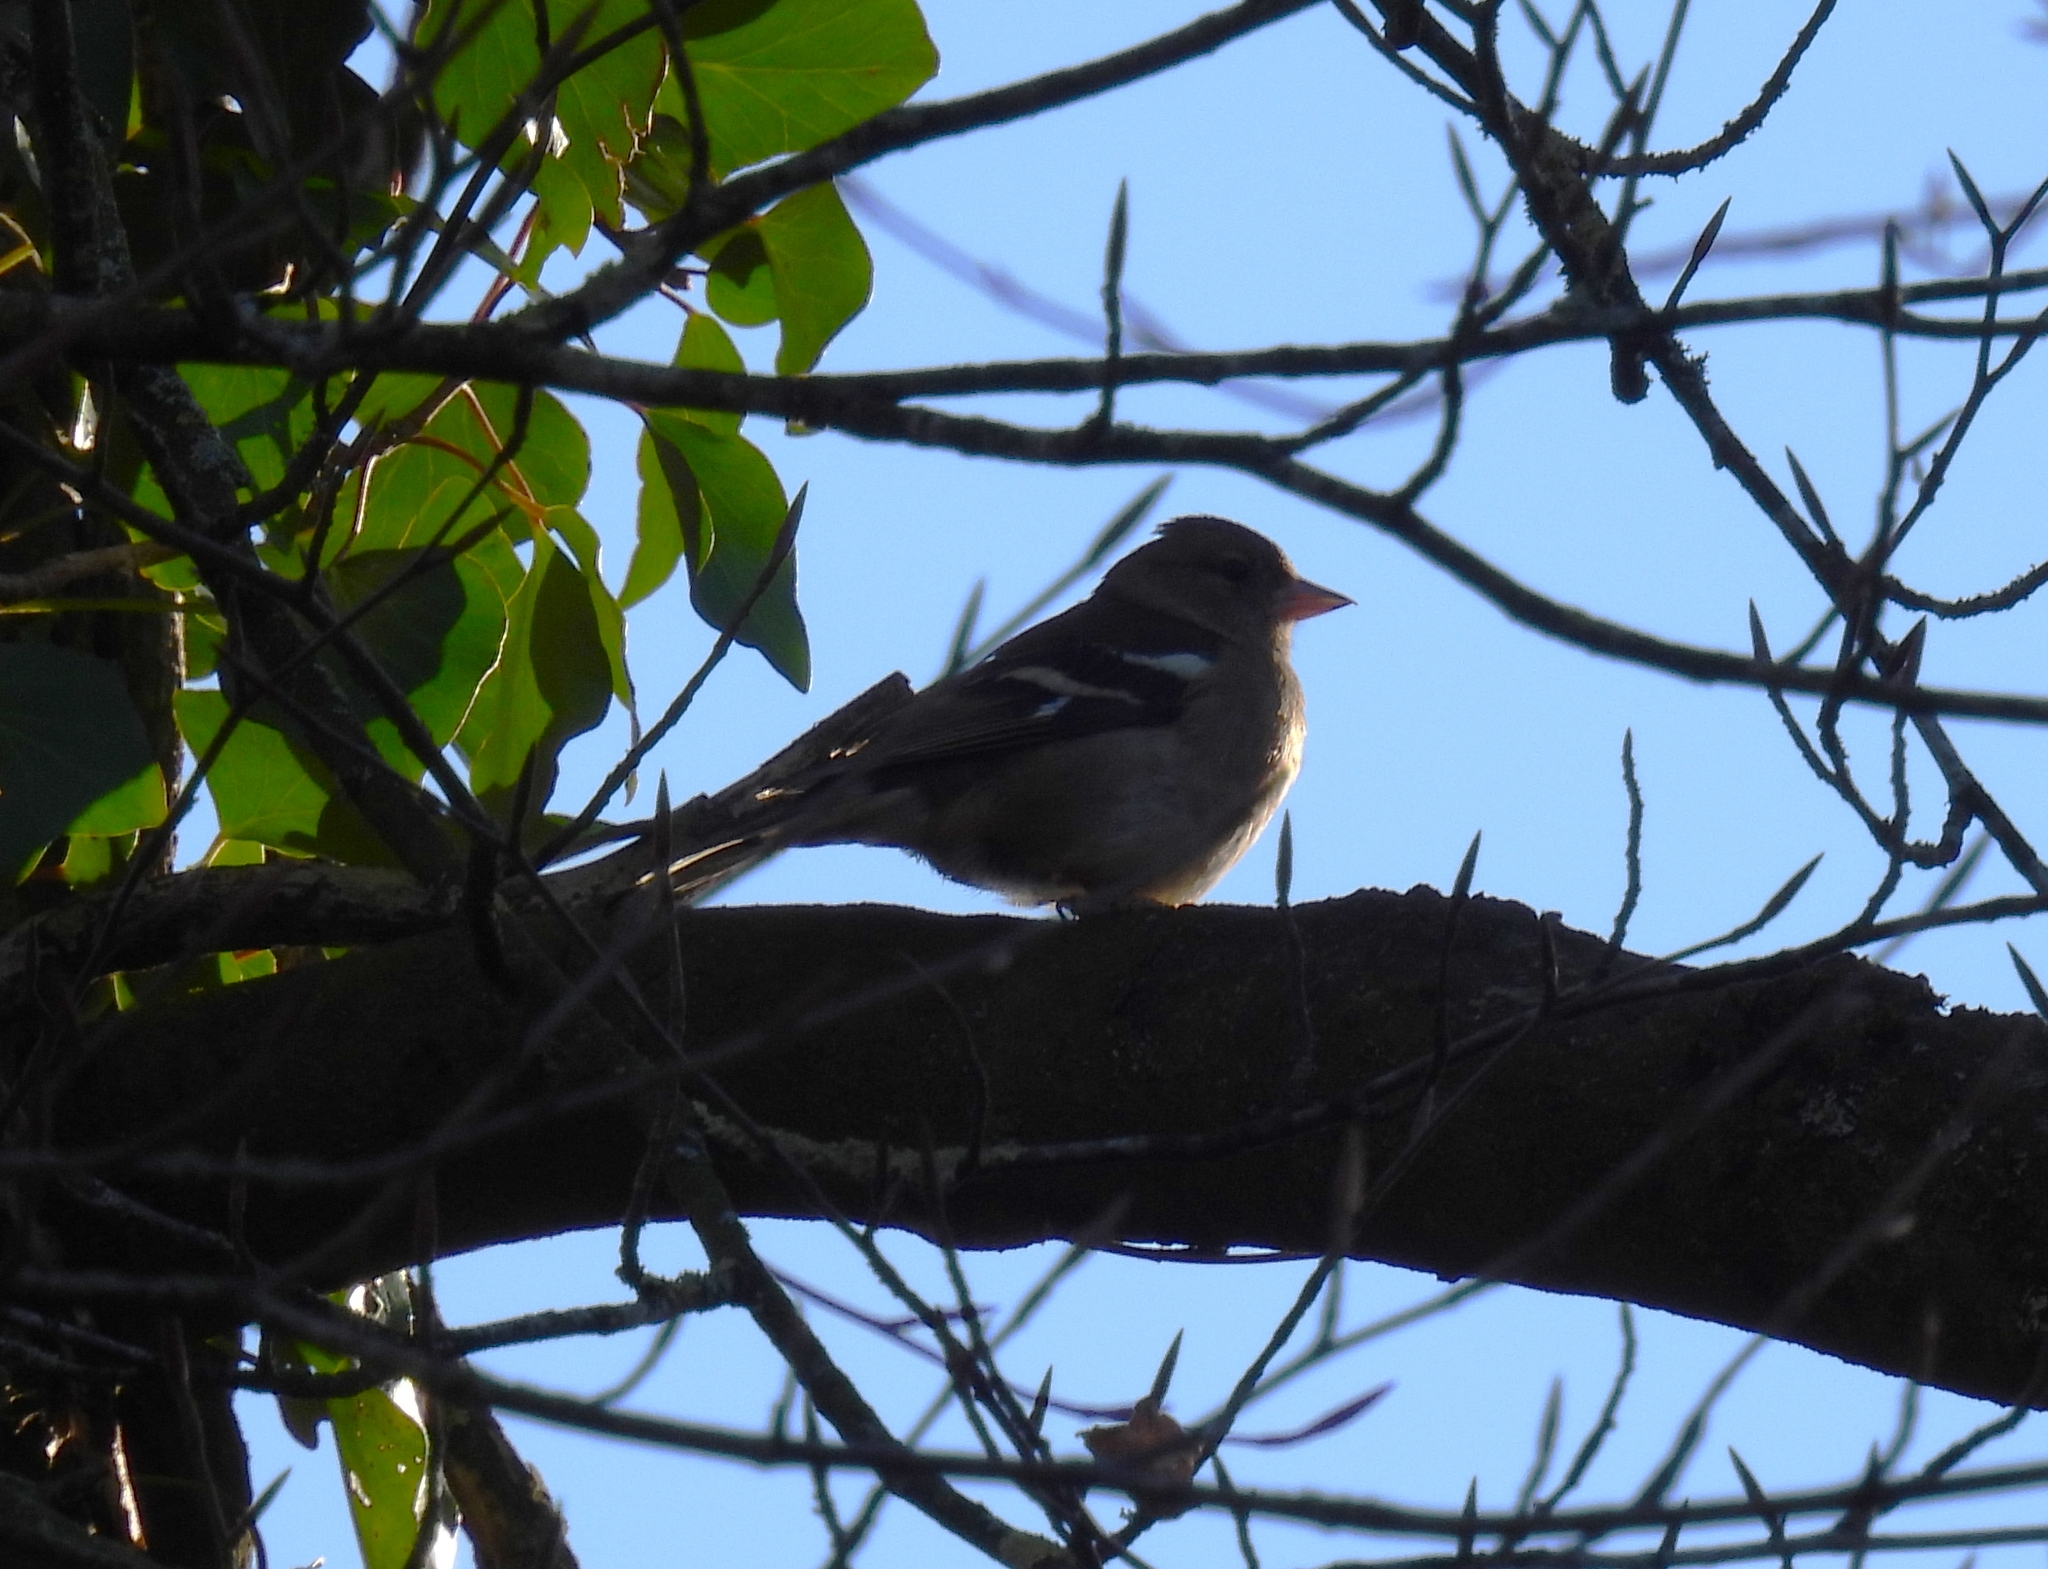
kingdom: Animalia
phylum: Chordata
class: Aves
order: Passeriformes
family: Fringillidae
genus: Fringilla
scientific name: Fringilla coelebs
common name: Common chaffinch
